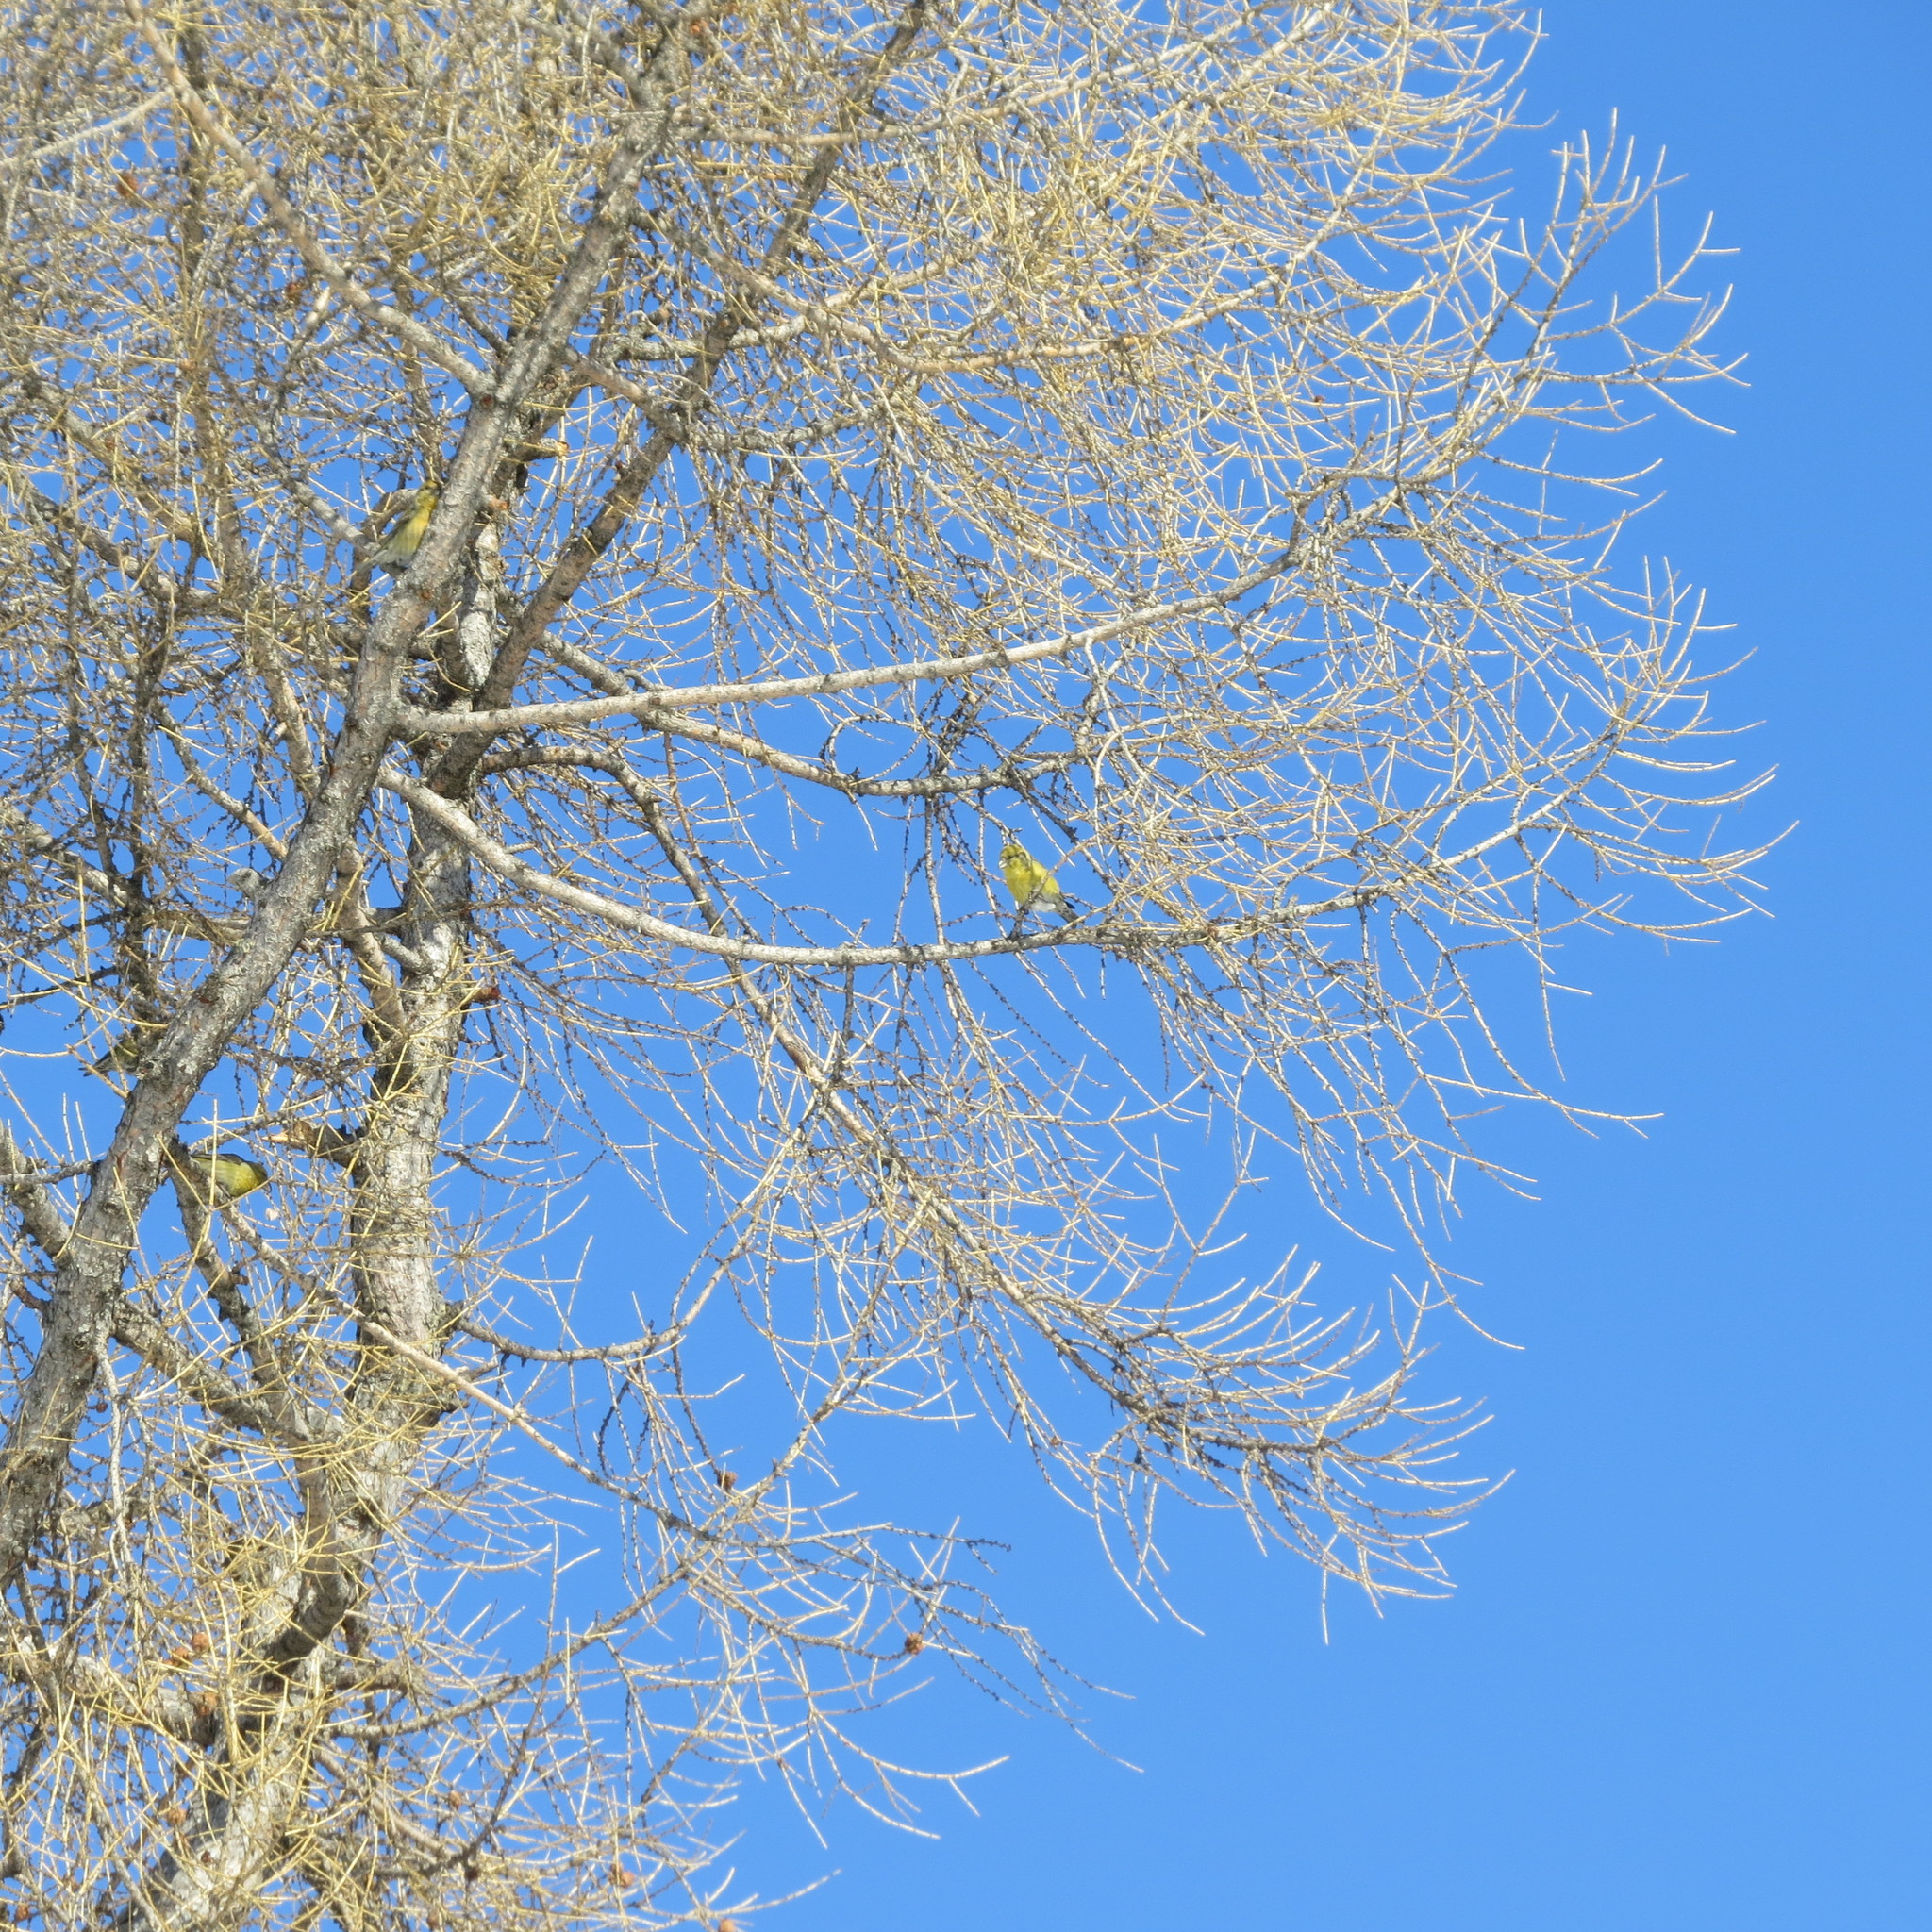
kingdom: Animalia
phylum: Chordata
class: Aves
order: Passeriformes
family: Fringillidae
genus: Loxia
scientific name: Loxia curvirostra
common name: Red crossbill
